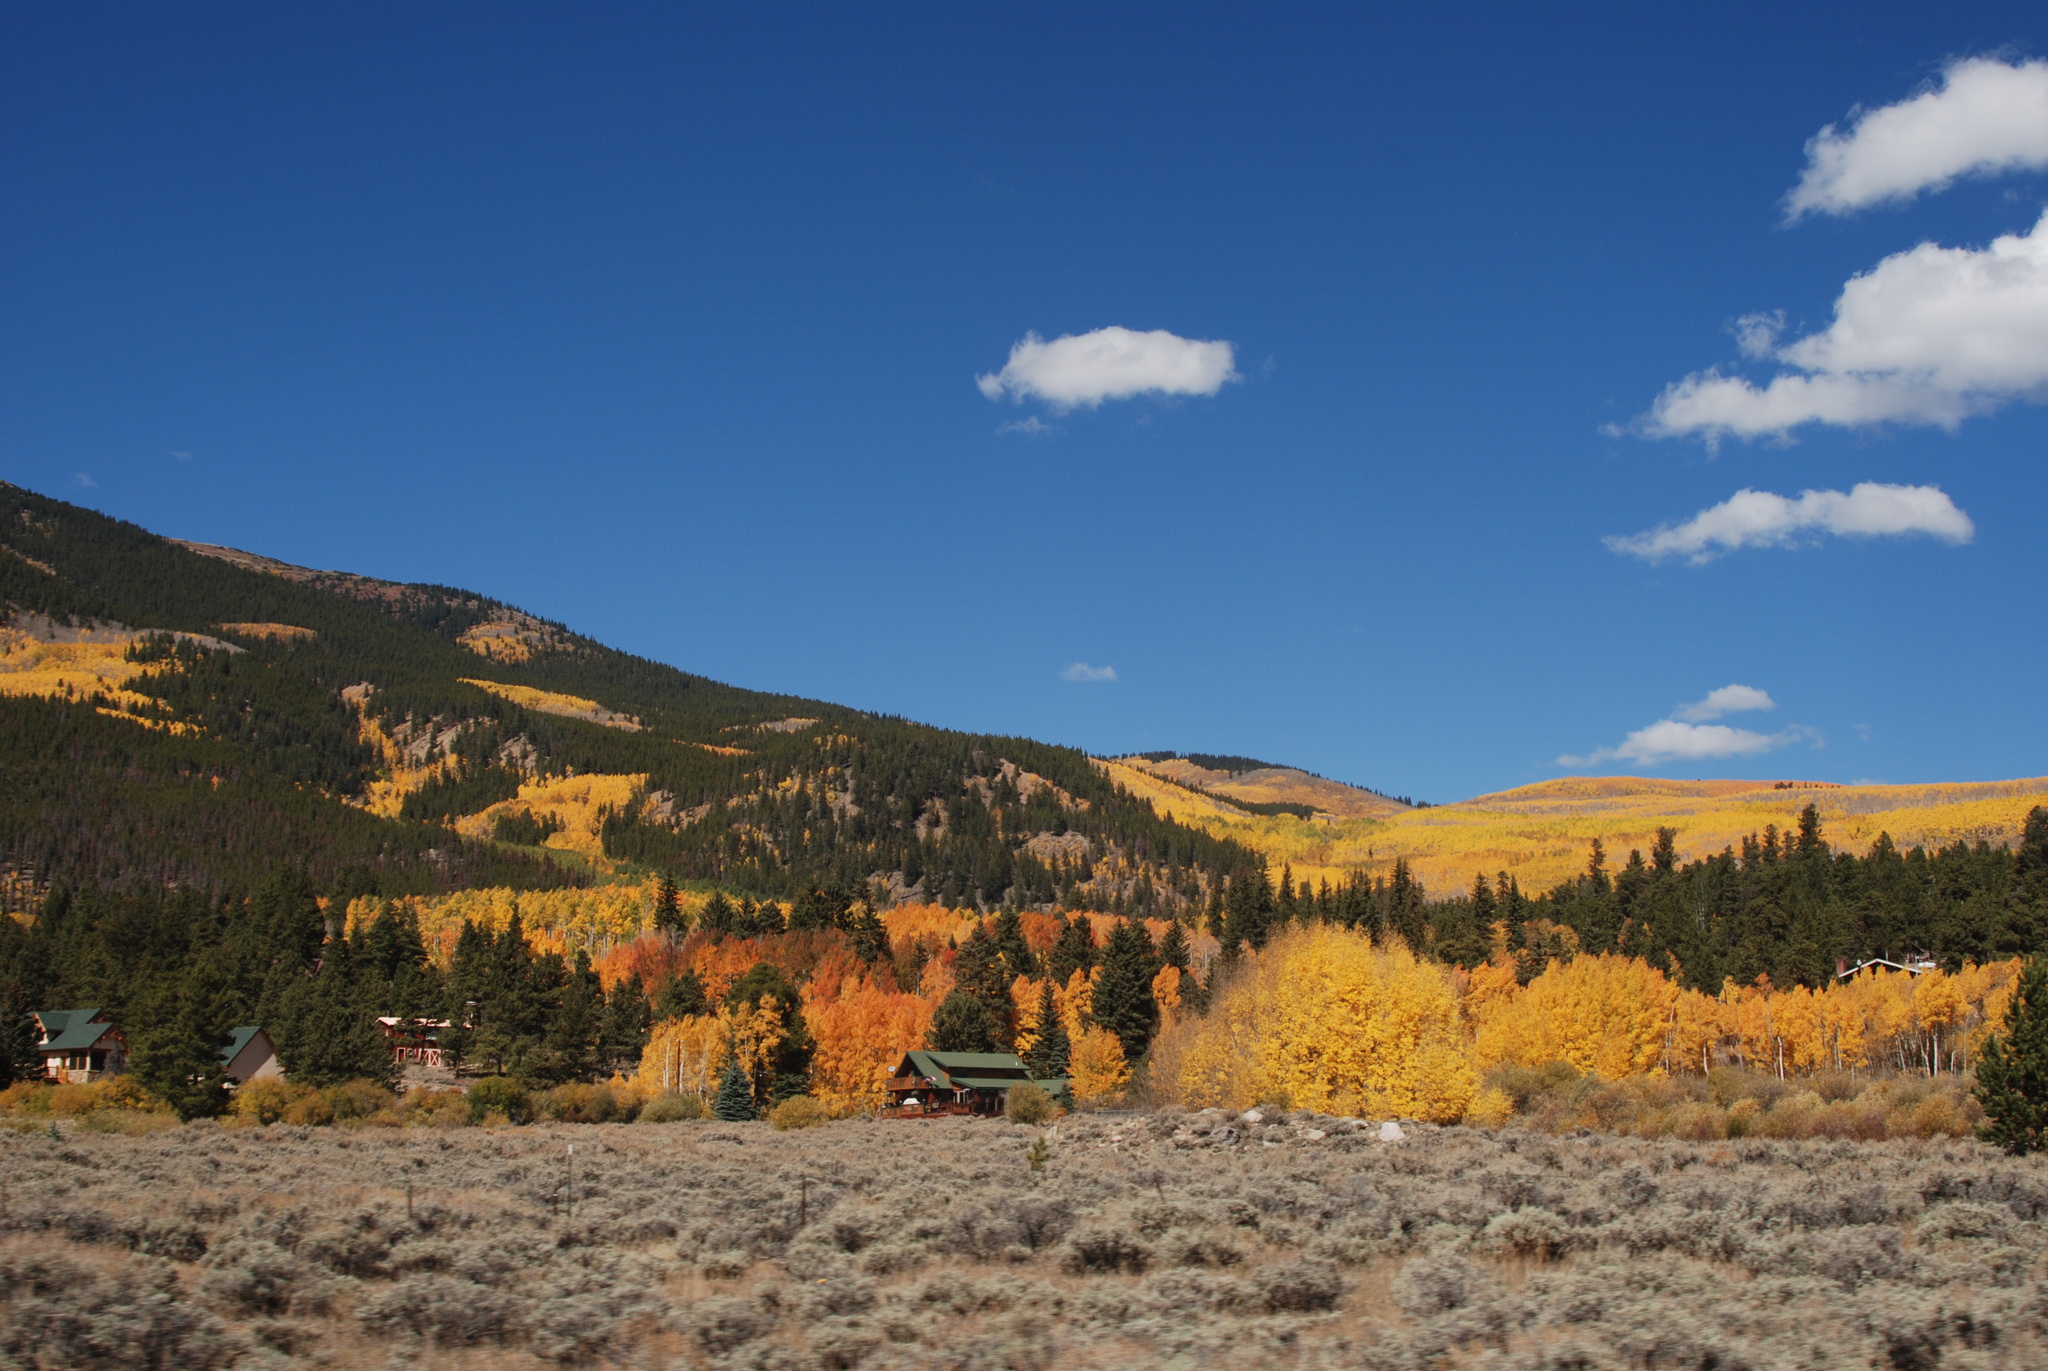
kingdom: Plantae
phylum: Tracheophyta
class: Magnoliopsida
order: Malpighiales
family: Salicaceae
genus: Populus
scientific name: Populus tremuloides
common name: Quaking aspen
